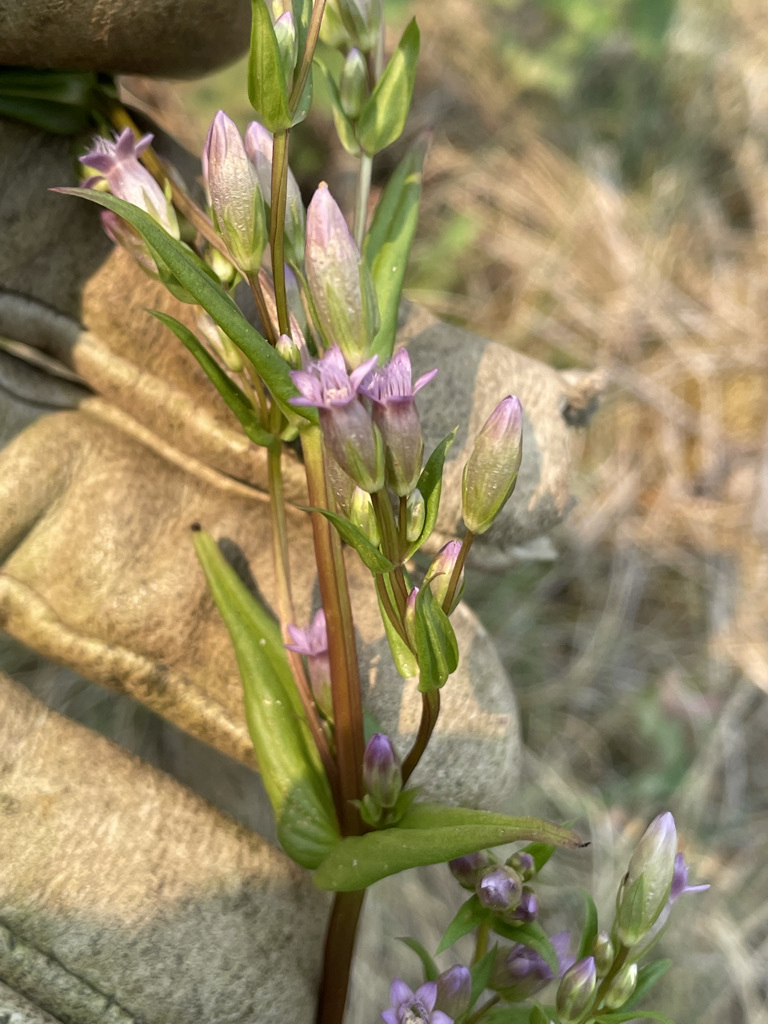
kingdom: Plantae
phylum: Tracheophyta
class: Magnoliopsida
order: Gentianales
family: Gentianaceae
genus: Gentianella
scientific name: Gentianella amarella
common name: Autumn gentian
